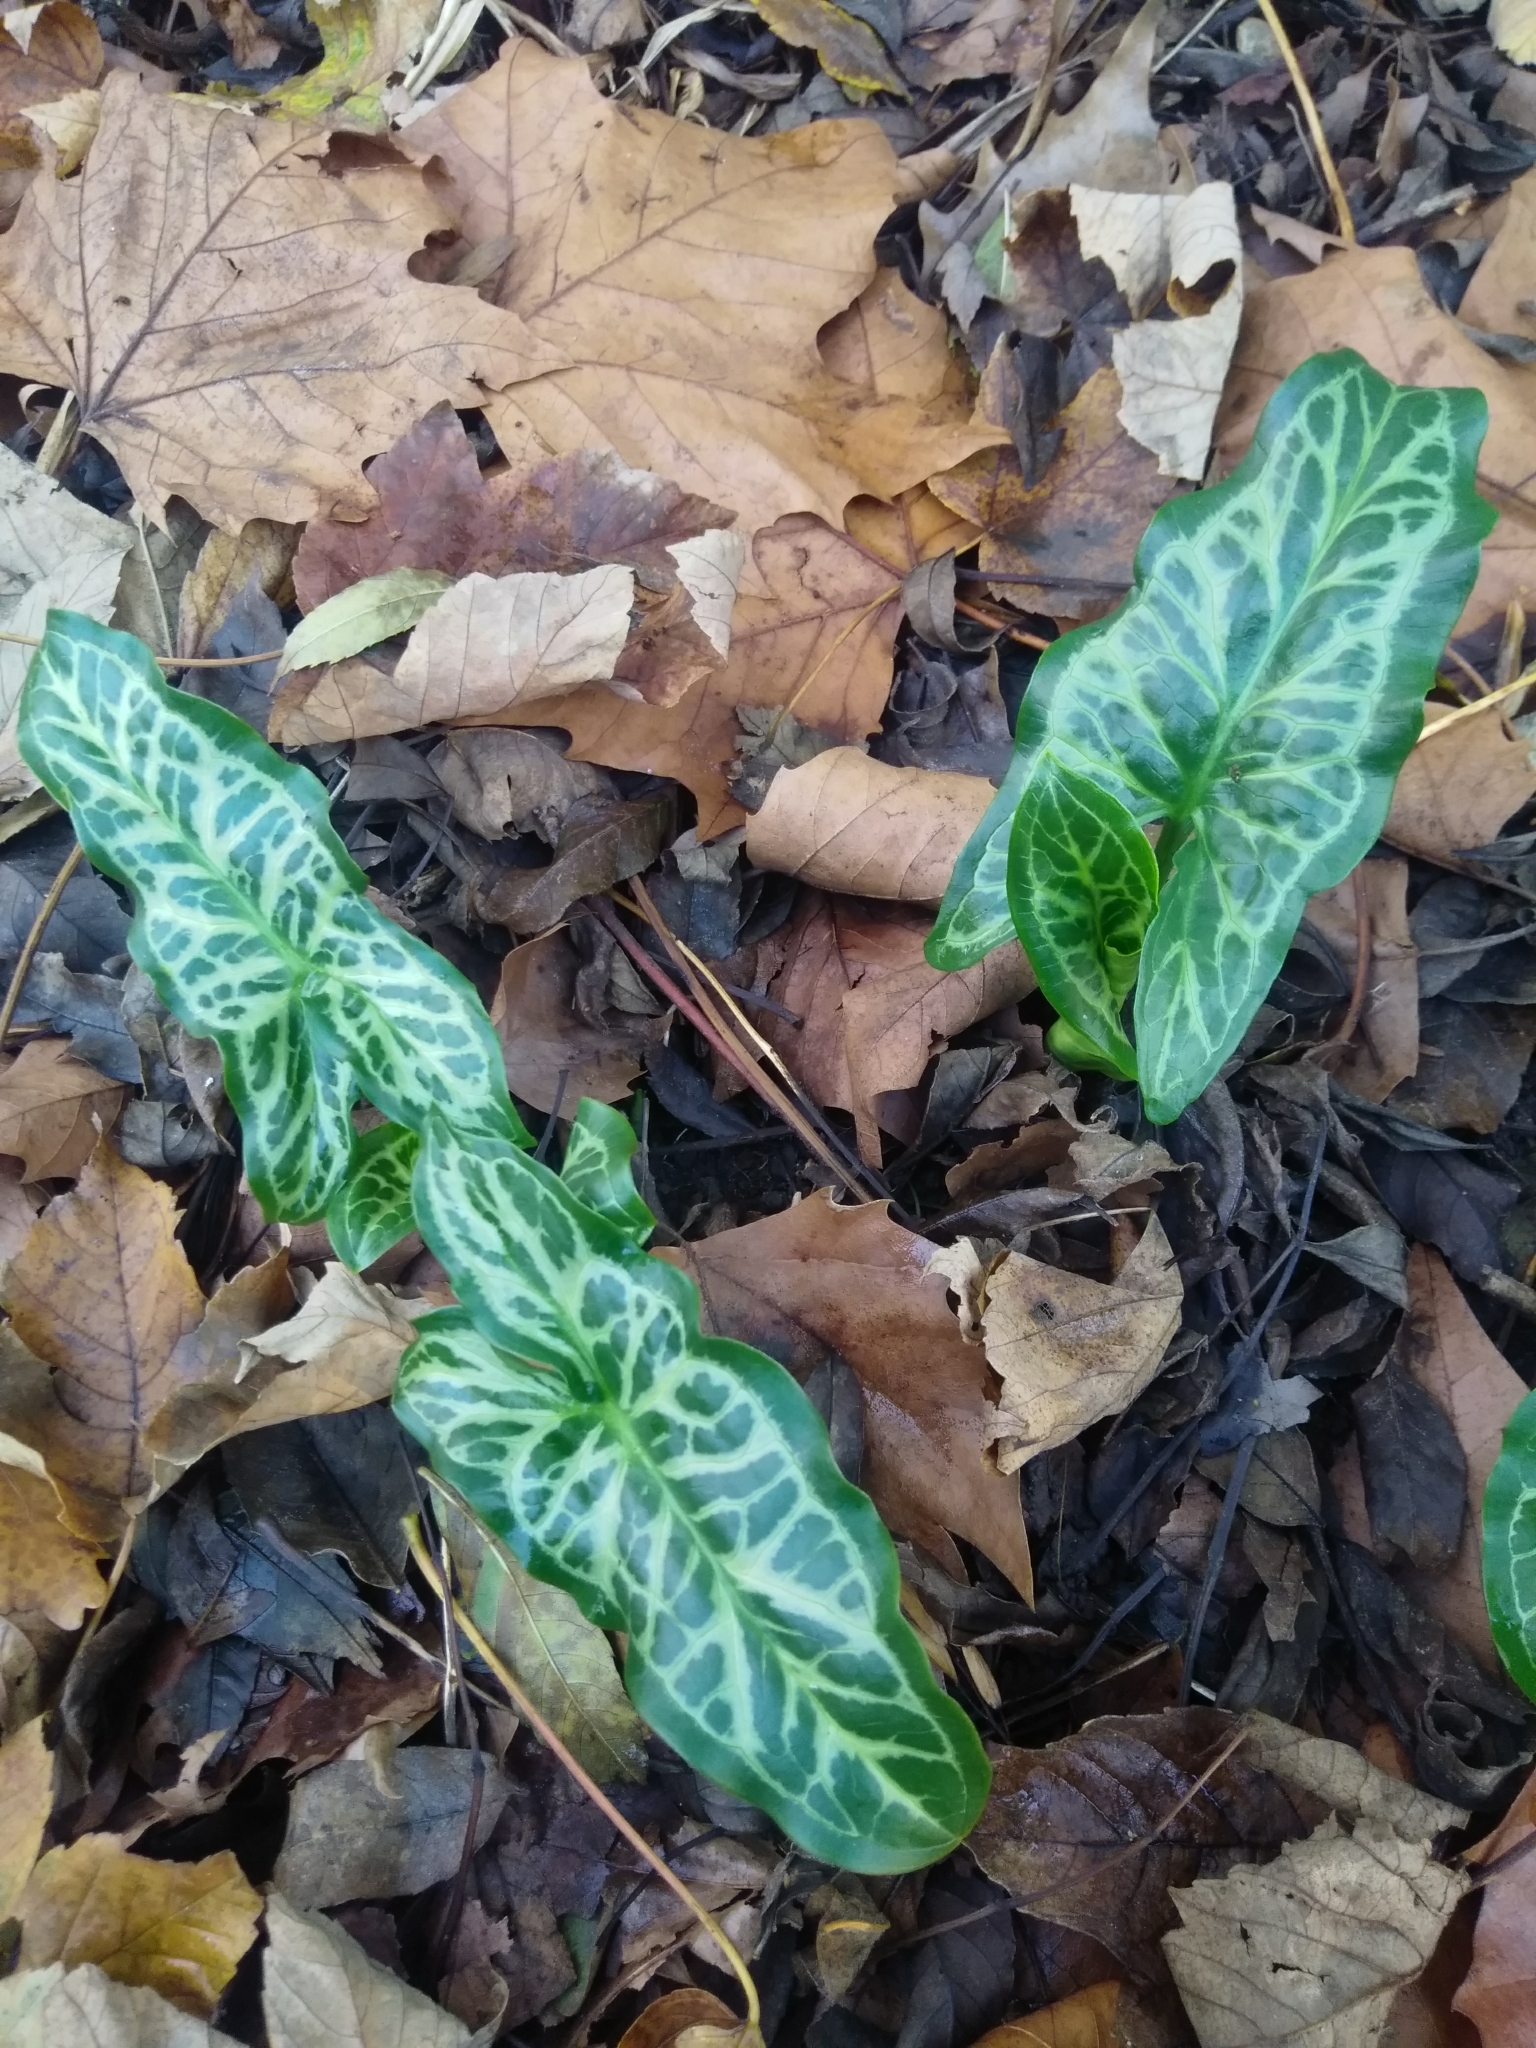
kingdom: Plantae
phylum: Tracheophyta
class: Liliopsida
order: Alismatales
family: Araceae
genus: Arum
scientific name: Arum italicum
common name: Italian lords-and-ladies
